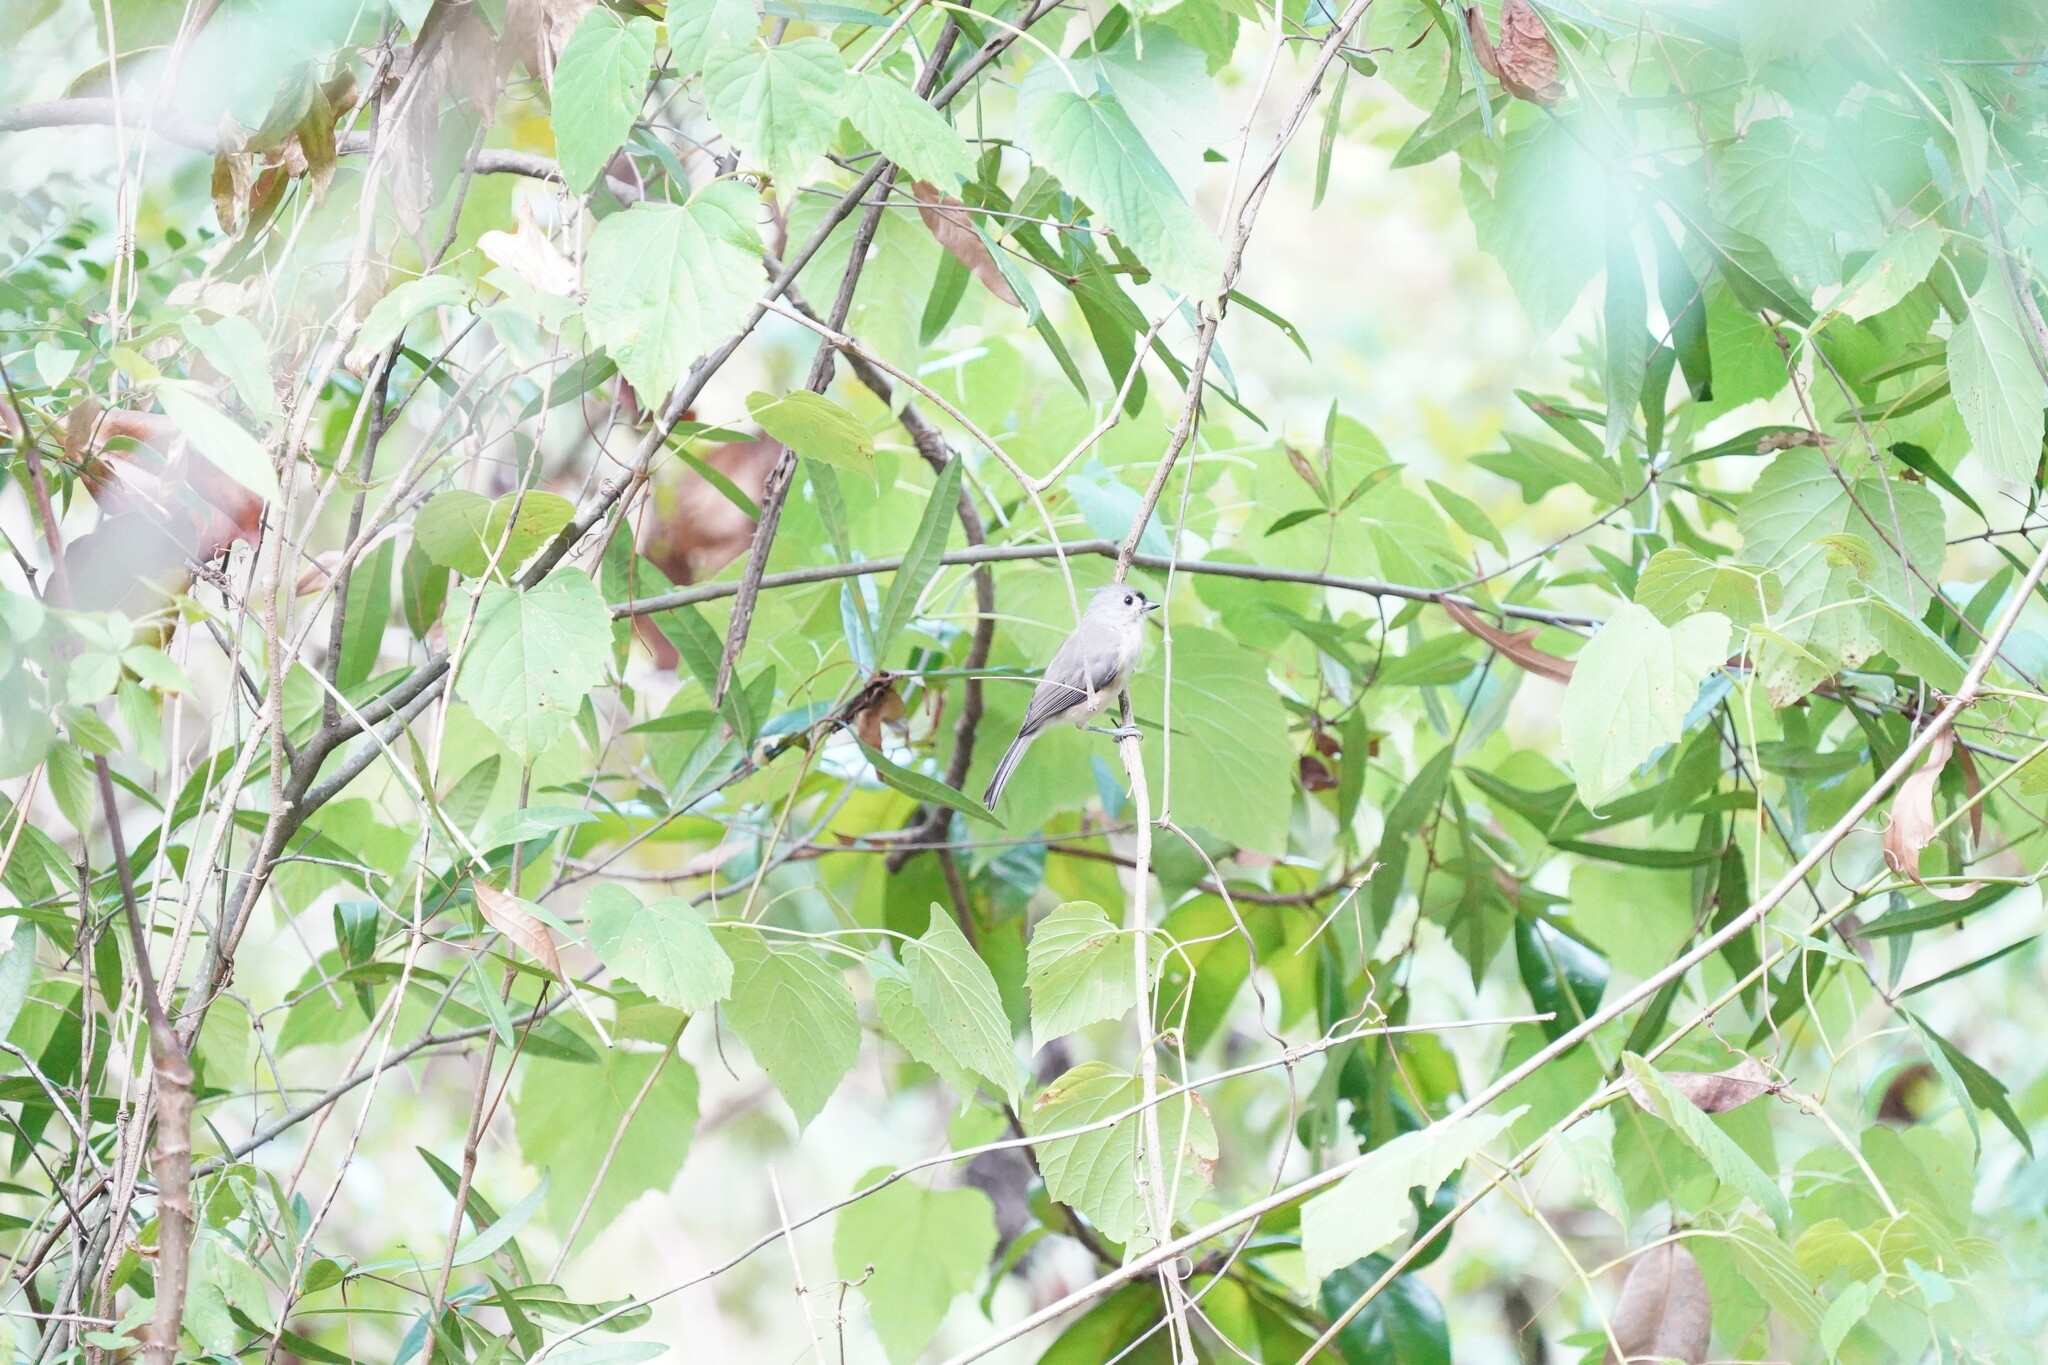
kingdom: Animalia
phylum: Chordata
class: Aves
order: Passeriformes
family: Paridae
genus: Baeolophus
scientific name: Baeolophus bicolor
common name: Tufted titmouse
